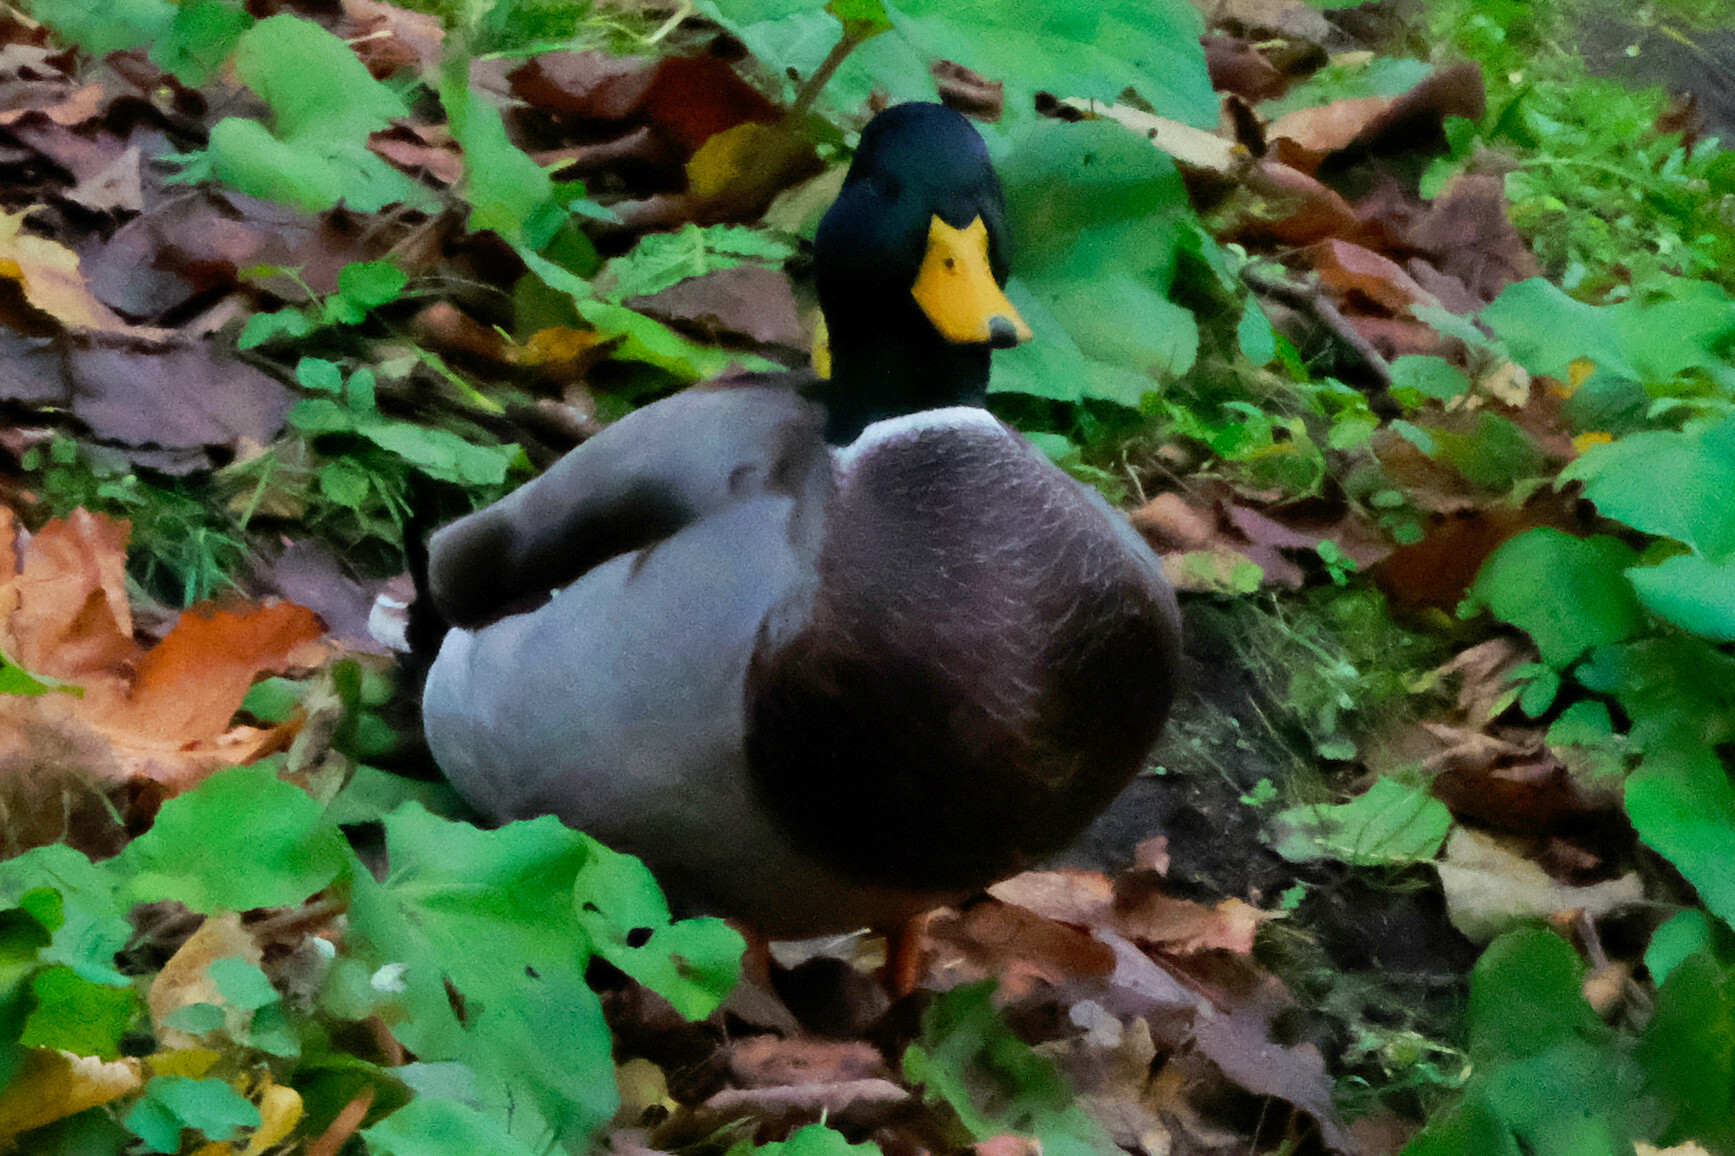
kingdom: Animalia
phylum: Chordata
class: Aves
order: Anseriformes
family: Anatidae
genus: Anas
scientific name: Anas platyrhynchos
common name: Mallard
